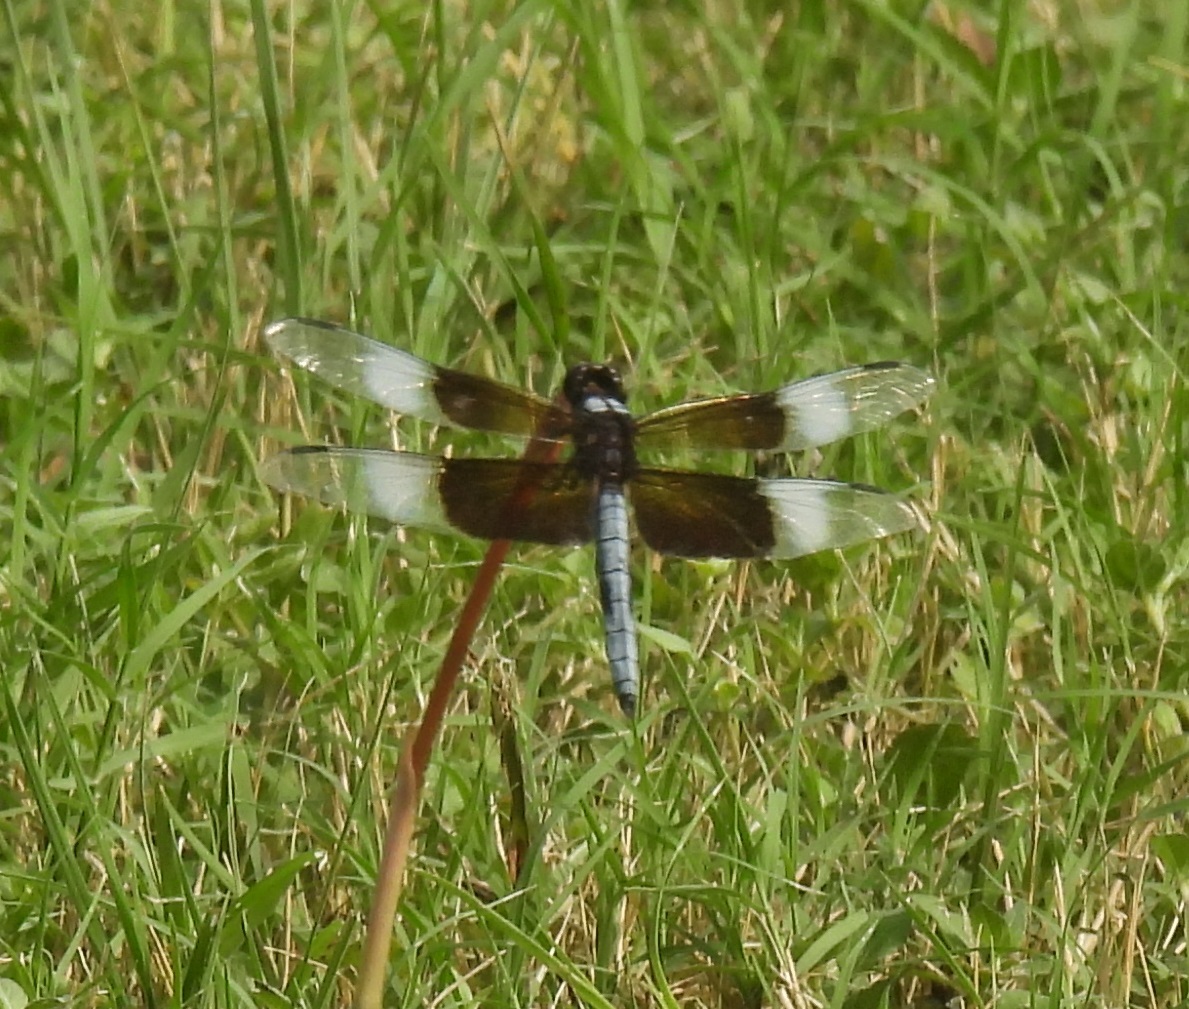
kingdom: Animalia
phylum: Arthropoda
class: Insecta
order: Odonata
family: Libellulidae
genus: Libellula
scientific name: Libellula luctuosa
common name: Widow skimmer
